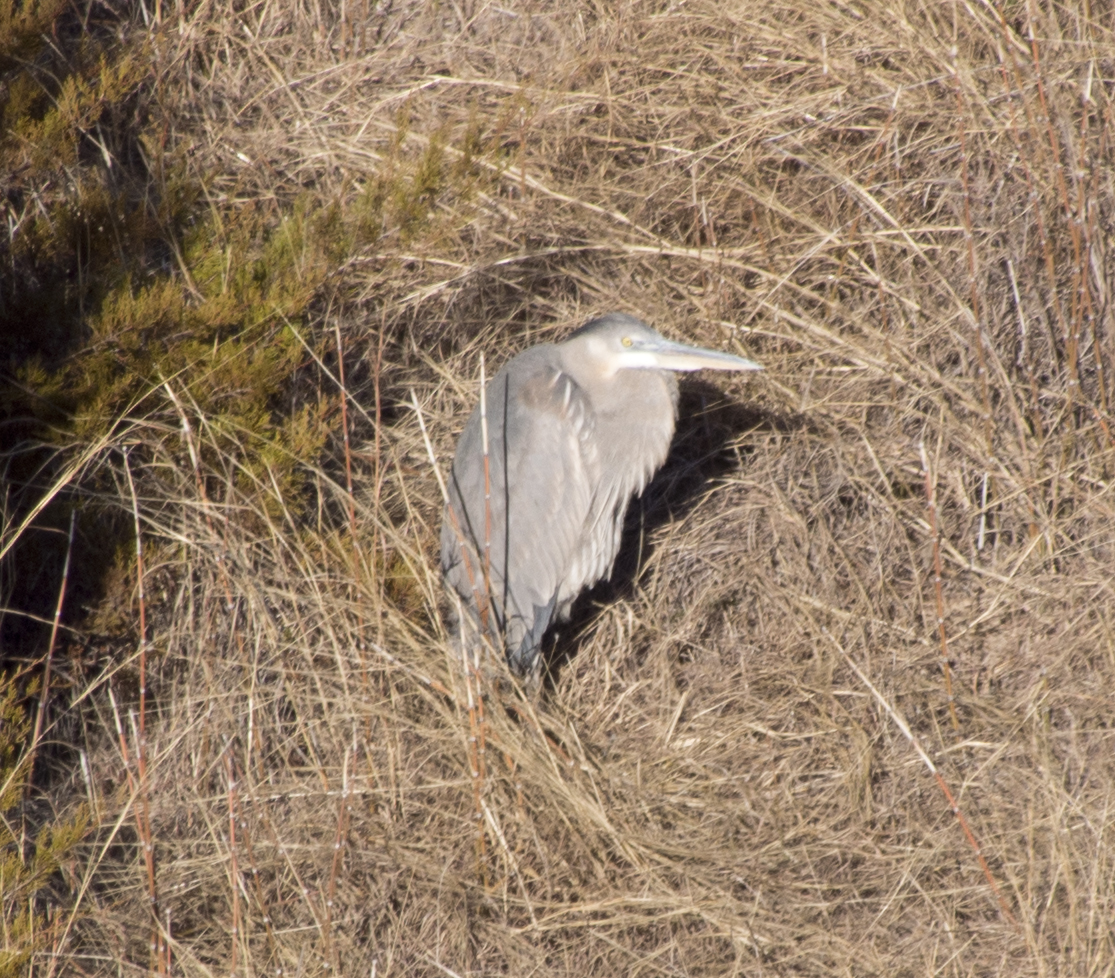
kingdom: Animalia
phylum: Chordata
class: Aves
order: Pelecaniformes
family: Ardeidae
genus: Ardea
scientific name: Ardea herodias
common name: Great blue heron
